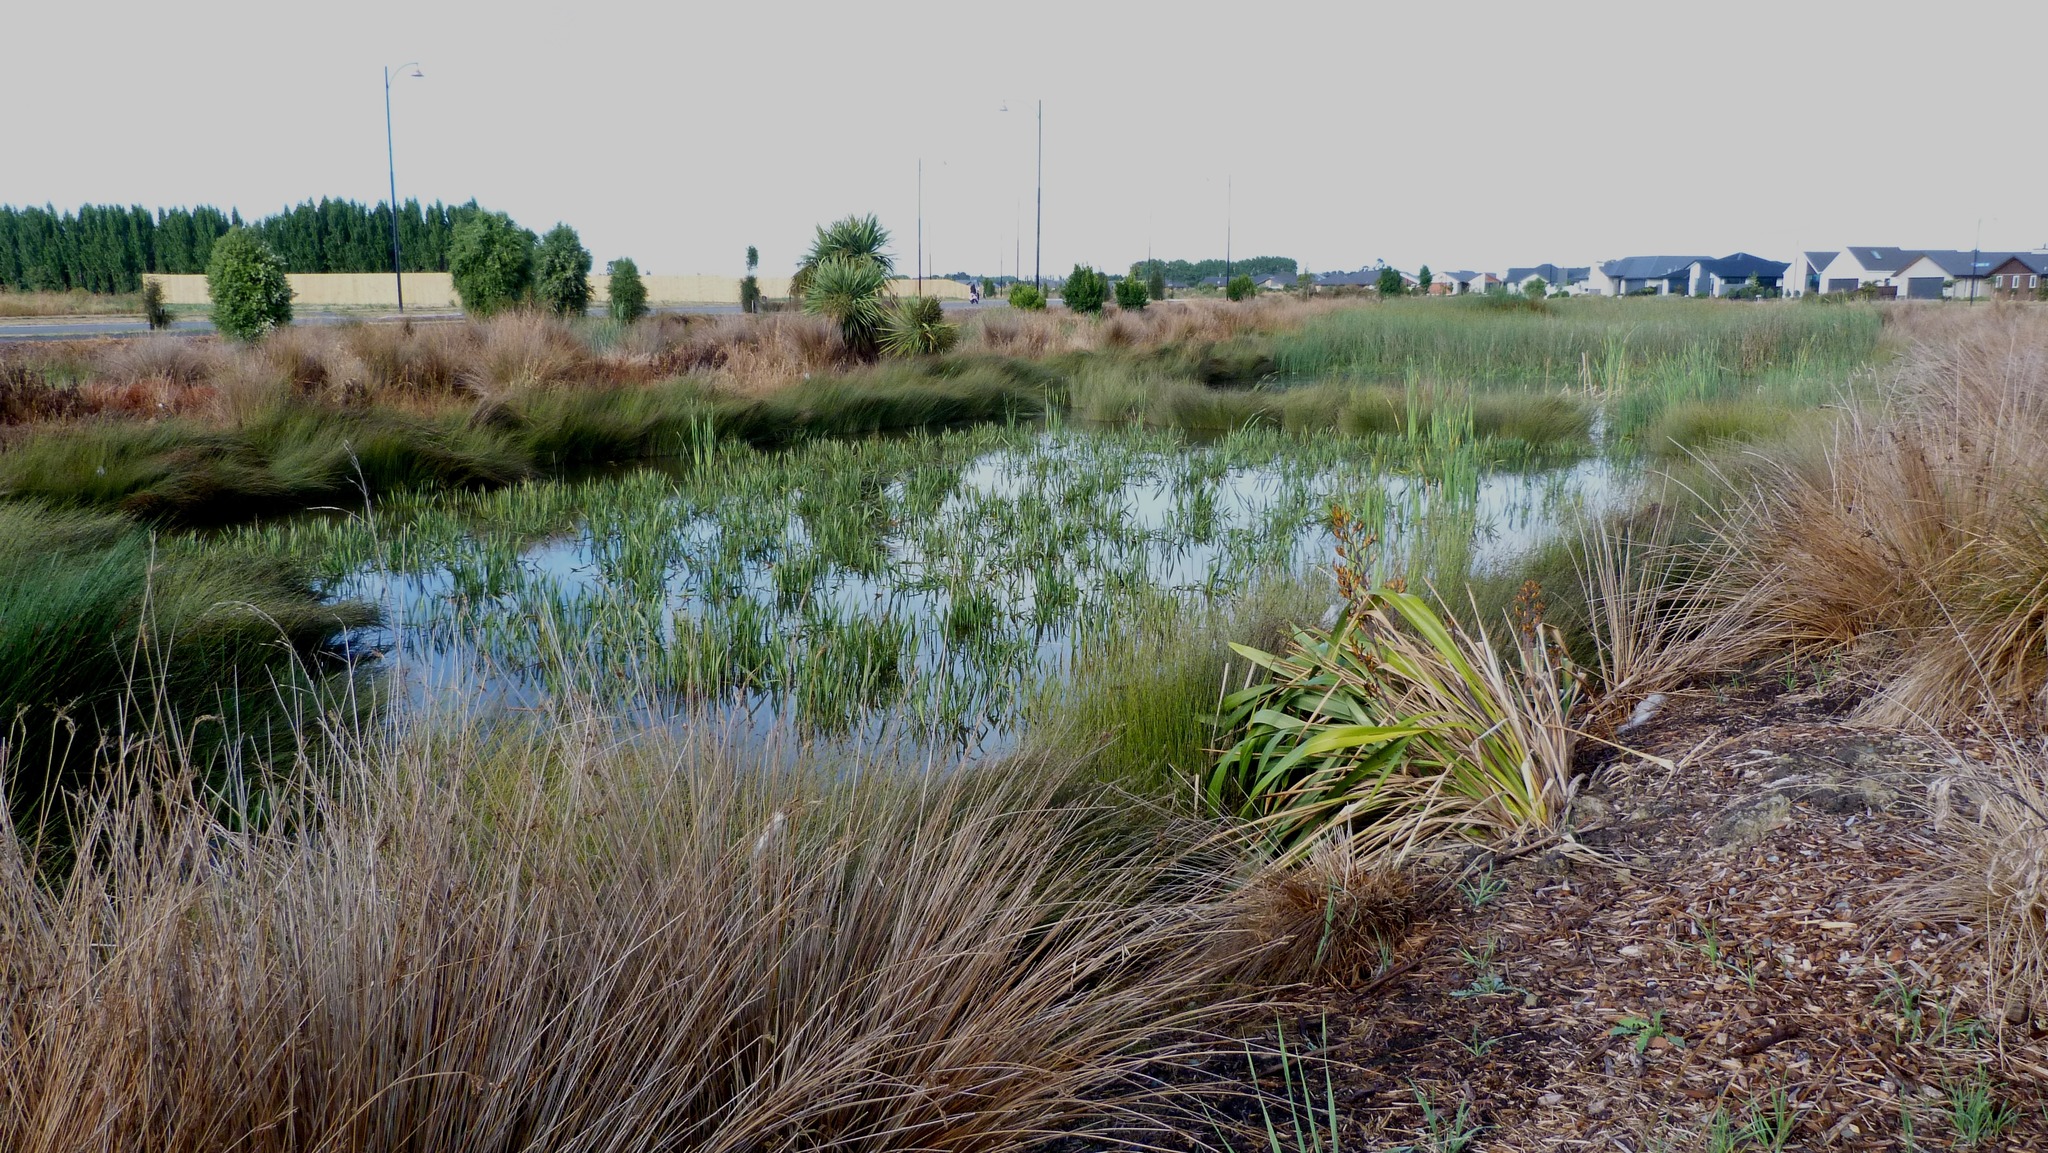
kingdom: Plantae
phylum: Tracheophyta
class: Liliopsida
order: Alismatales
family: Alismataceae
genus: Alisma
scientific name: Alisma plantago-aquatica
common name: Water-plantain
